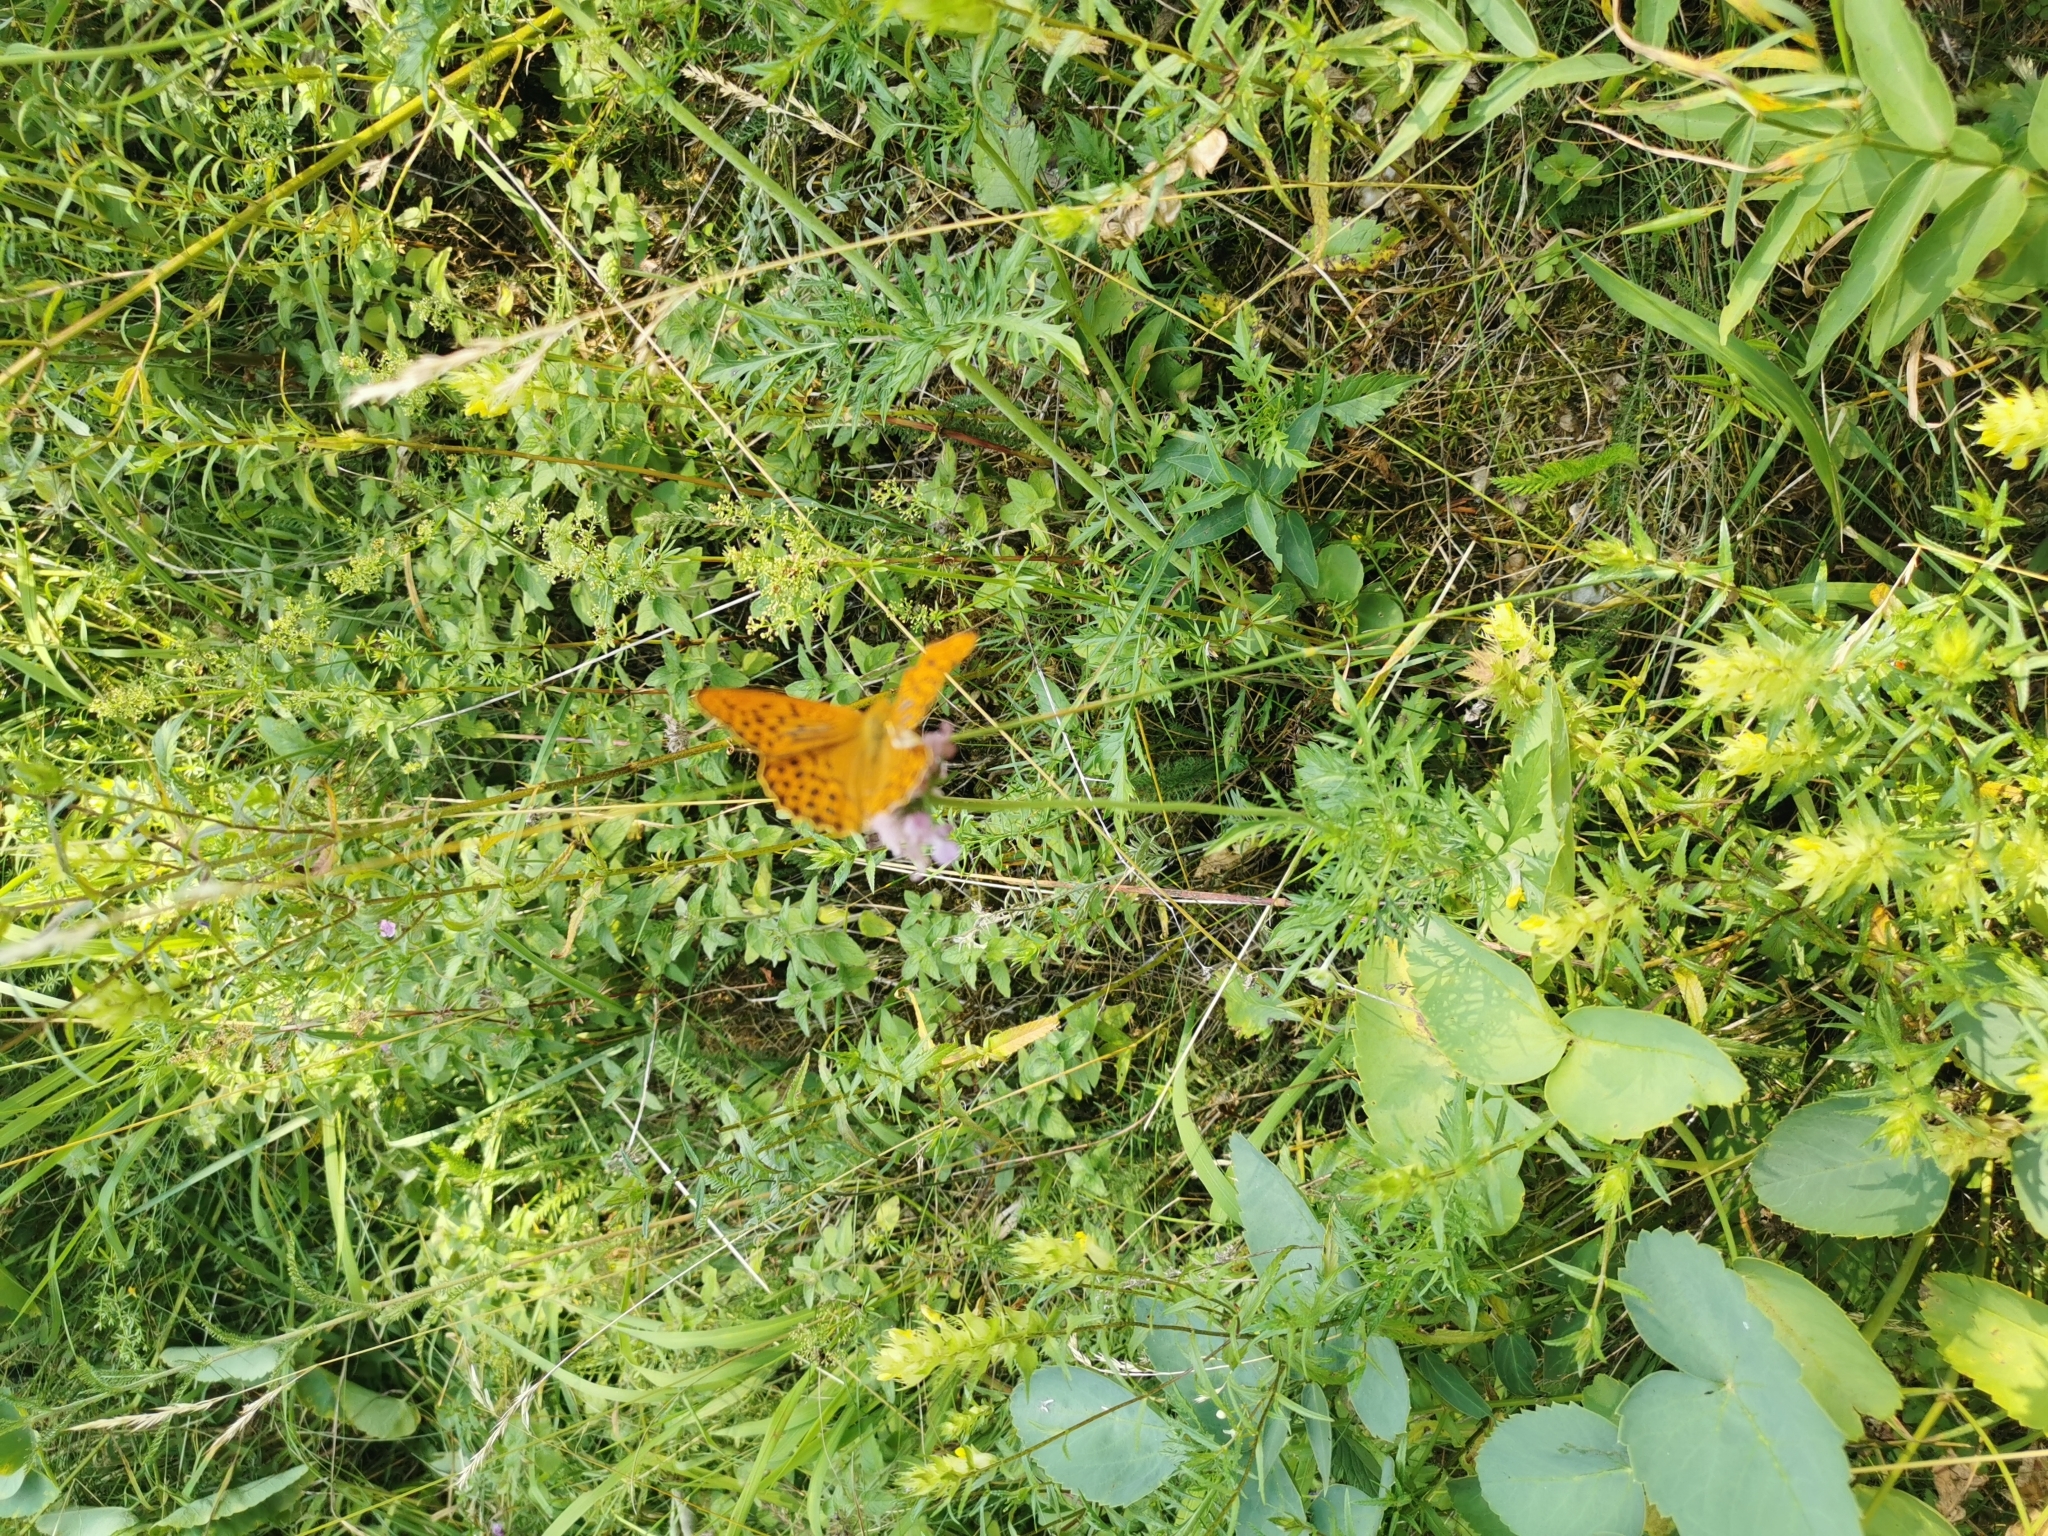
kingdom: Animalia
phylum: Arthropoda
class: Insecta
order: Lepidoptera
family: Nymphalidae
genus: Argynnis
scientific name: Argynnis paphia
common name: Silver-washed fritillary
